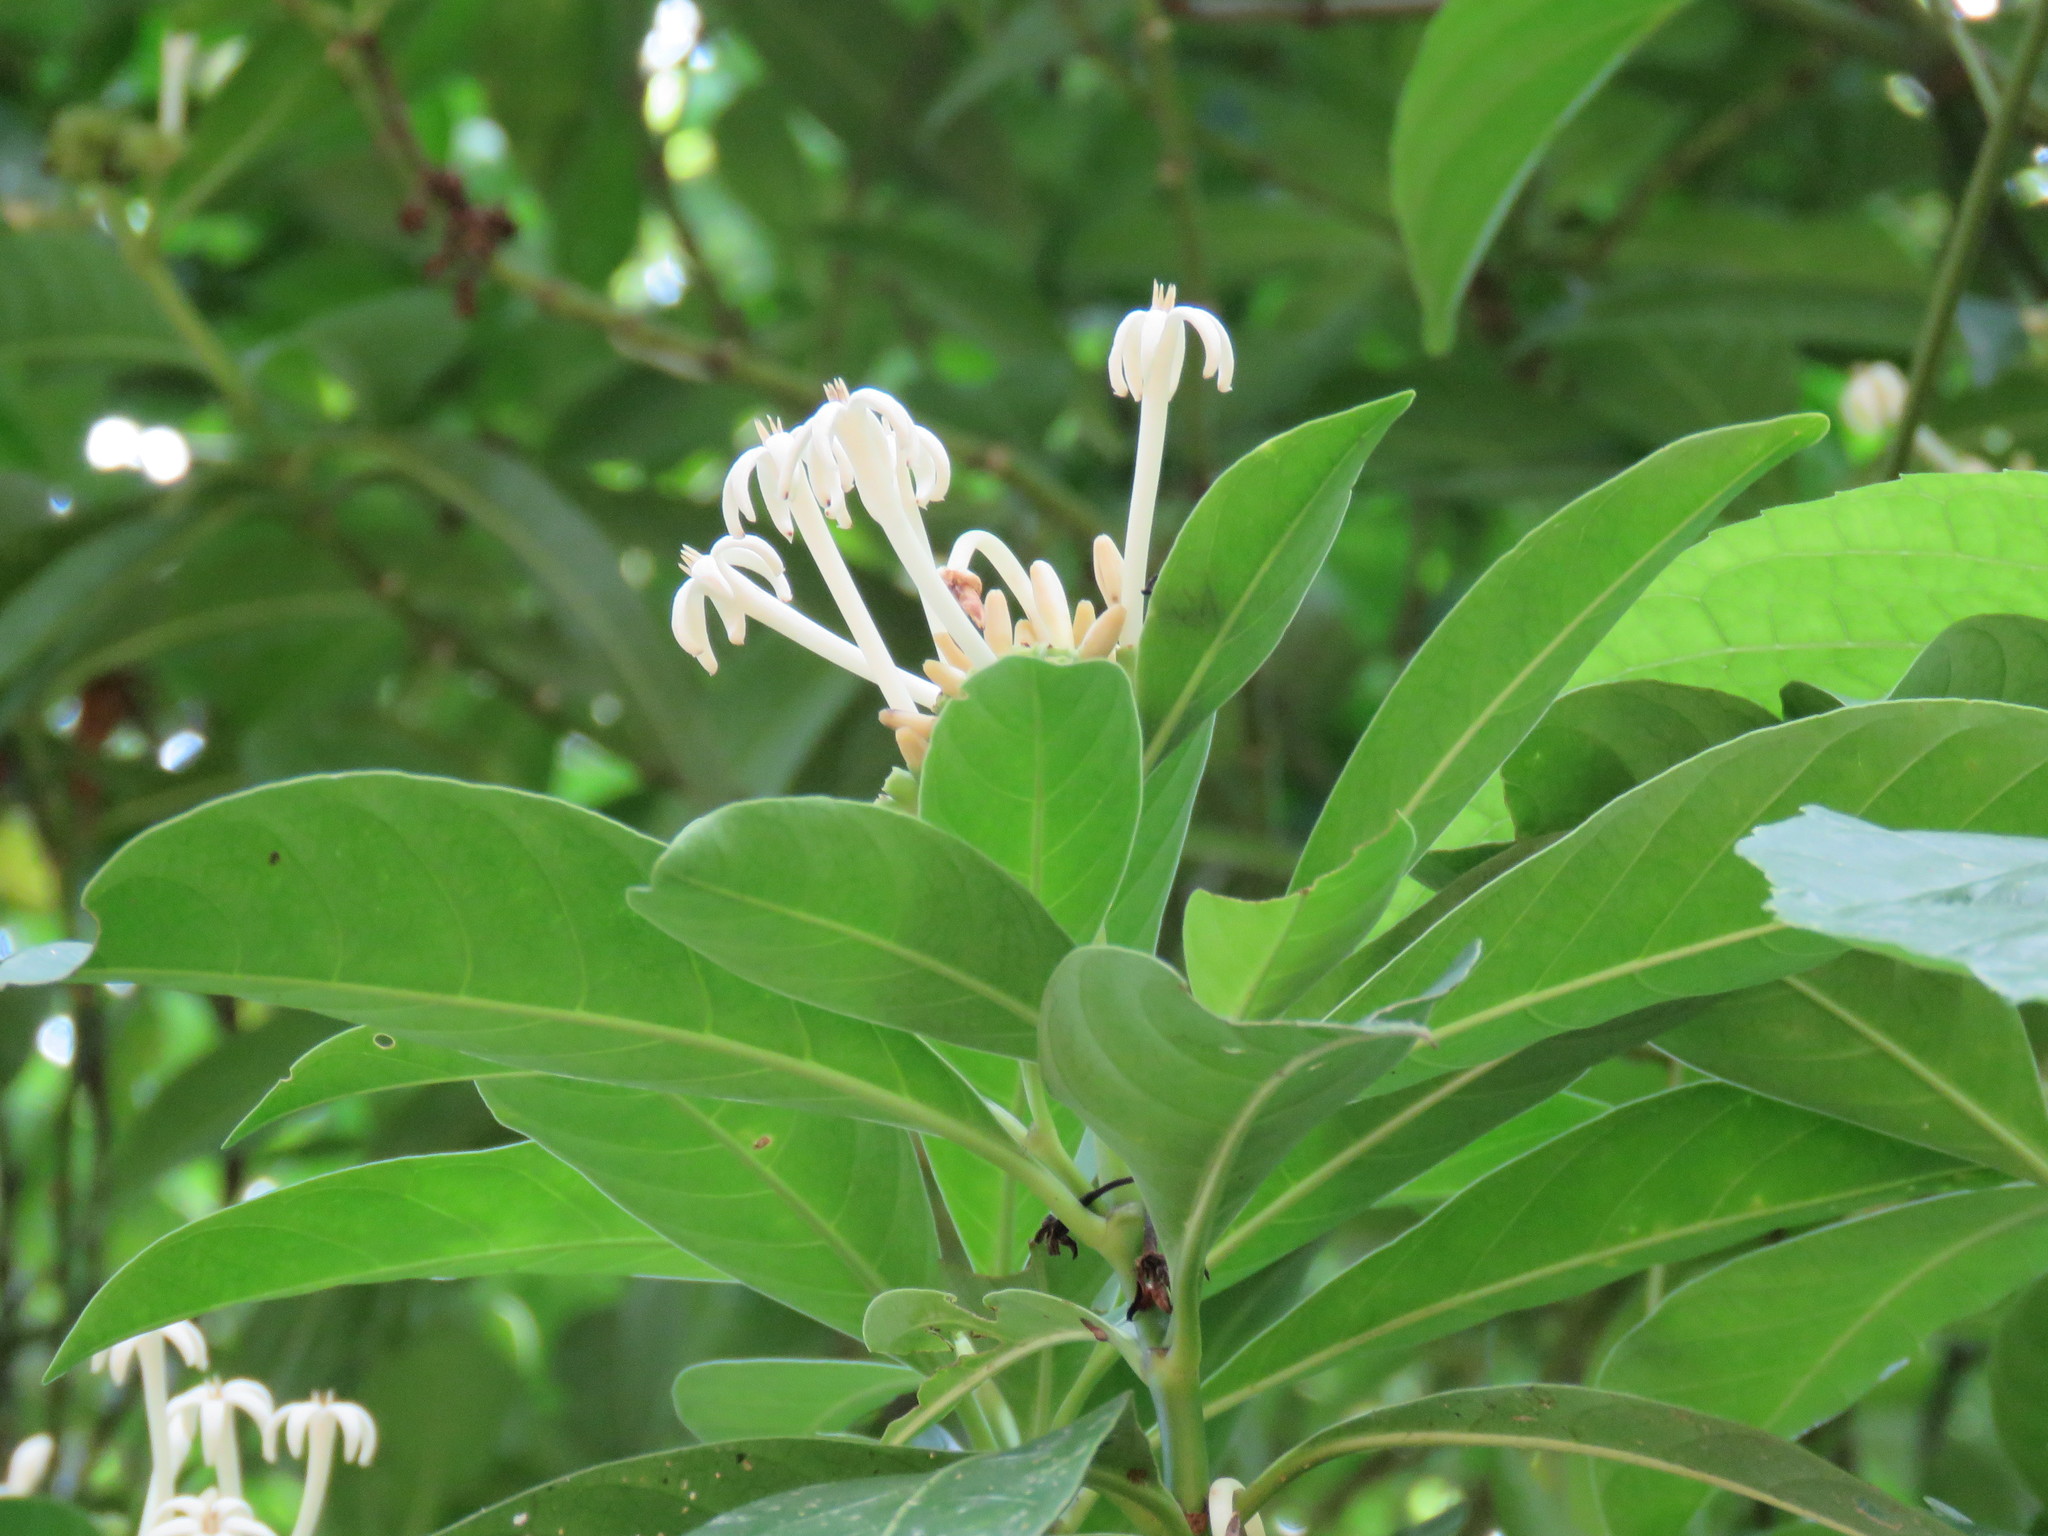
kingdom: Plantae
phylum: Tracheophyta
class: Magnoliopsida
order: Gentianales
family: Rubiaceae
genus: Palicourea
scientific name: Palicourea faxlucens
